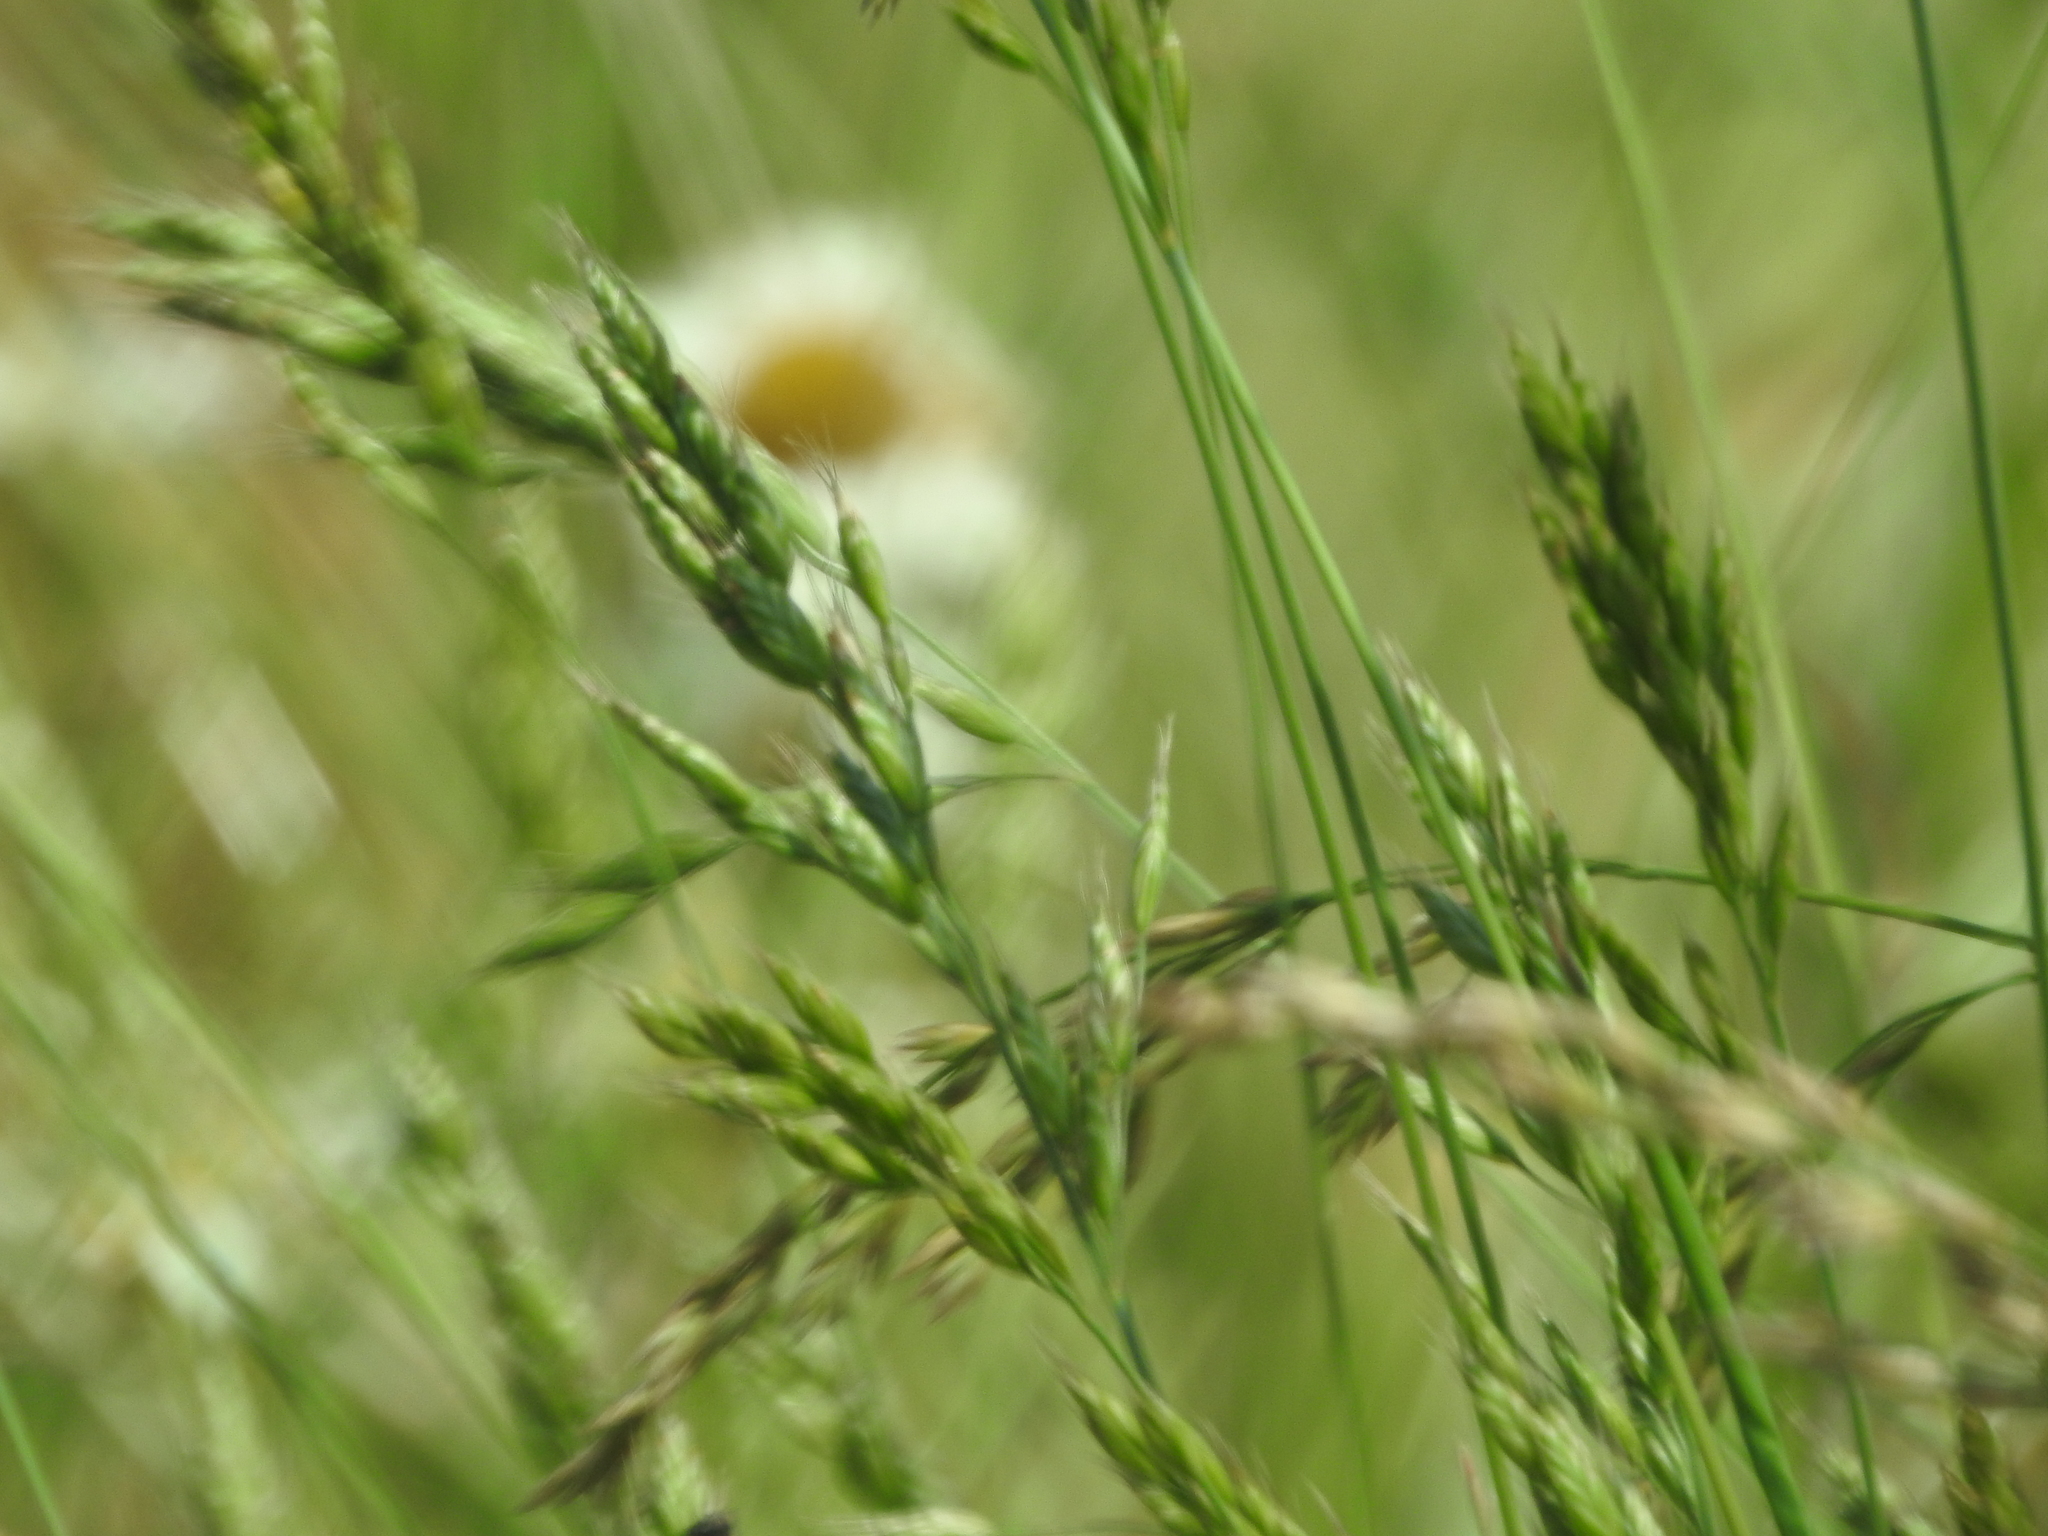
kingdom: Plantae
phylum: Tracheophyta
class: Liliopsida
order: Poales
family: Poaceae
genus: Bromus
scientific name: Bromus hordeaceus
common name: Soft brome
